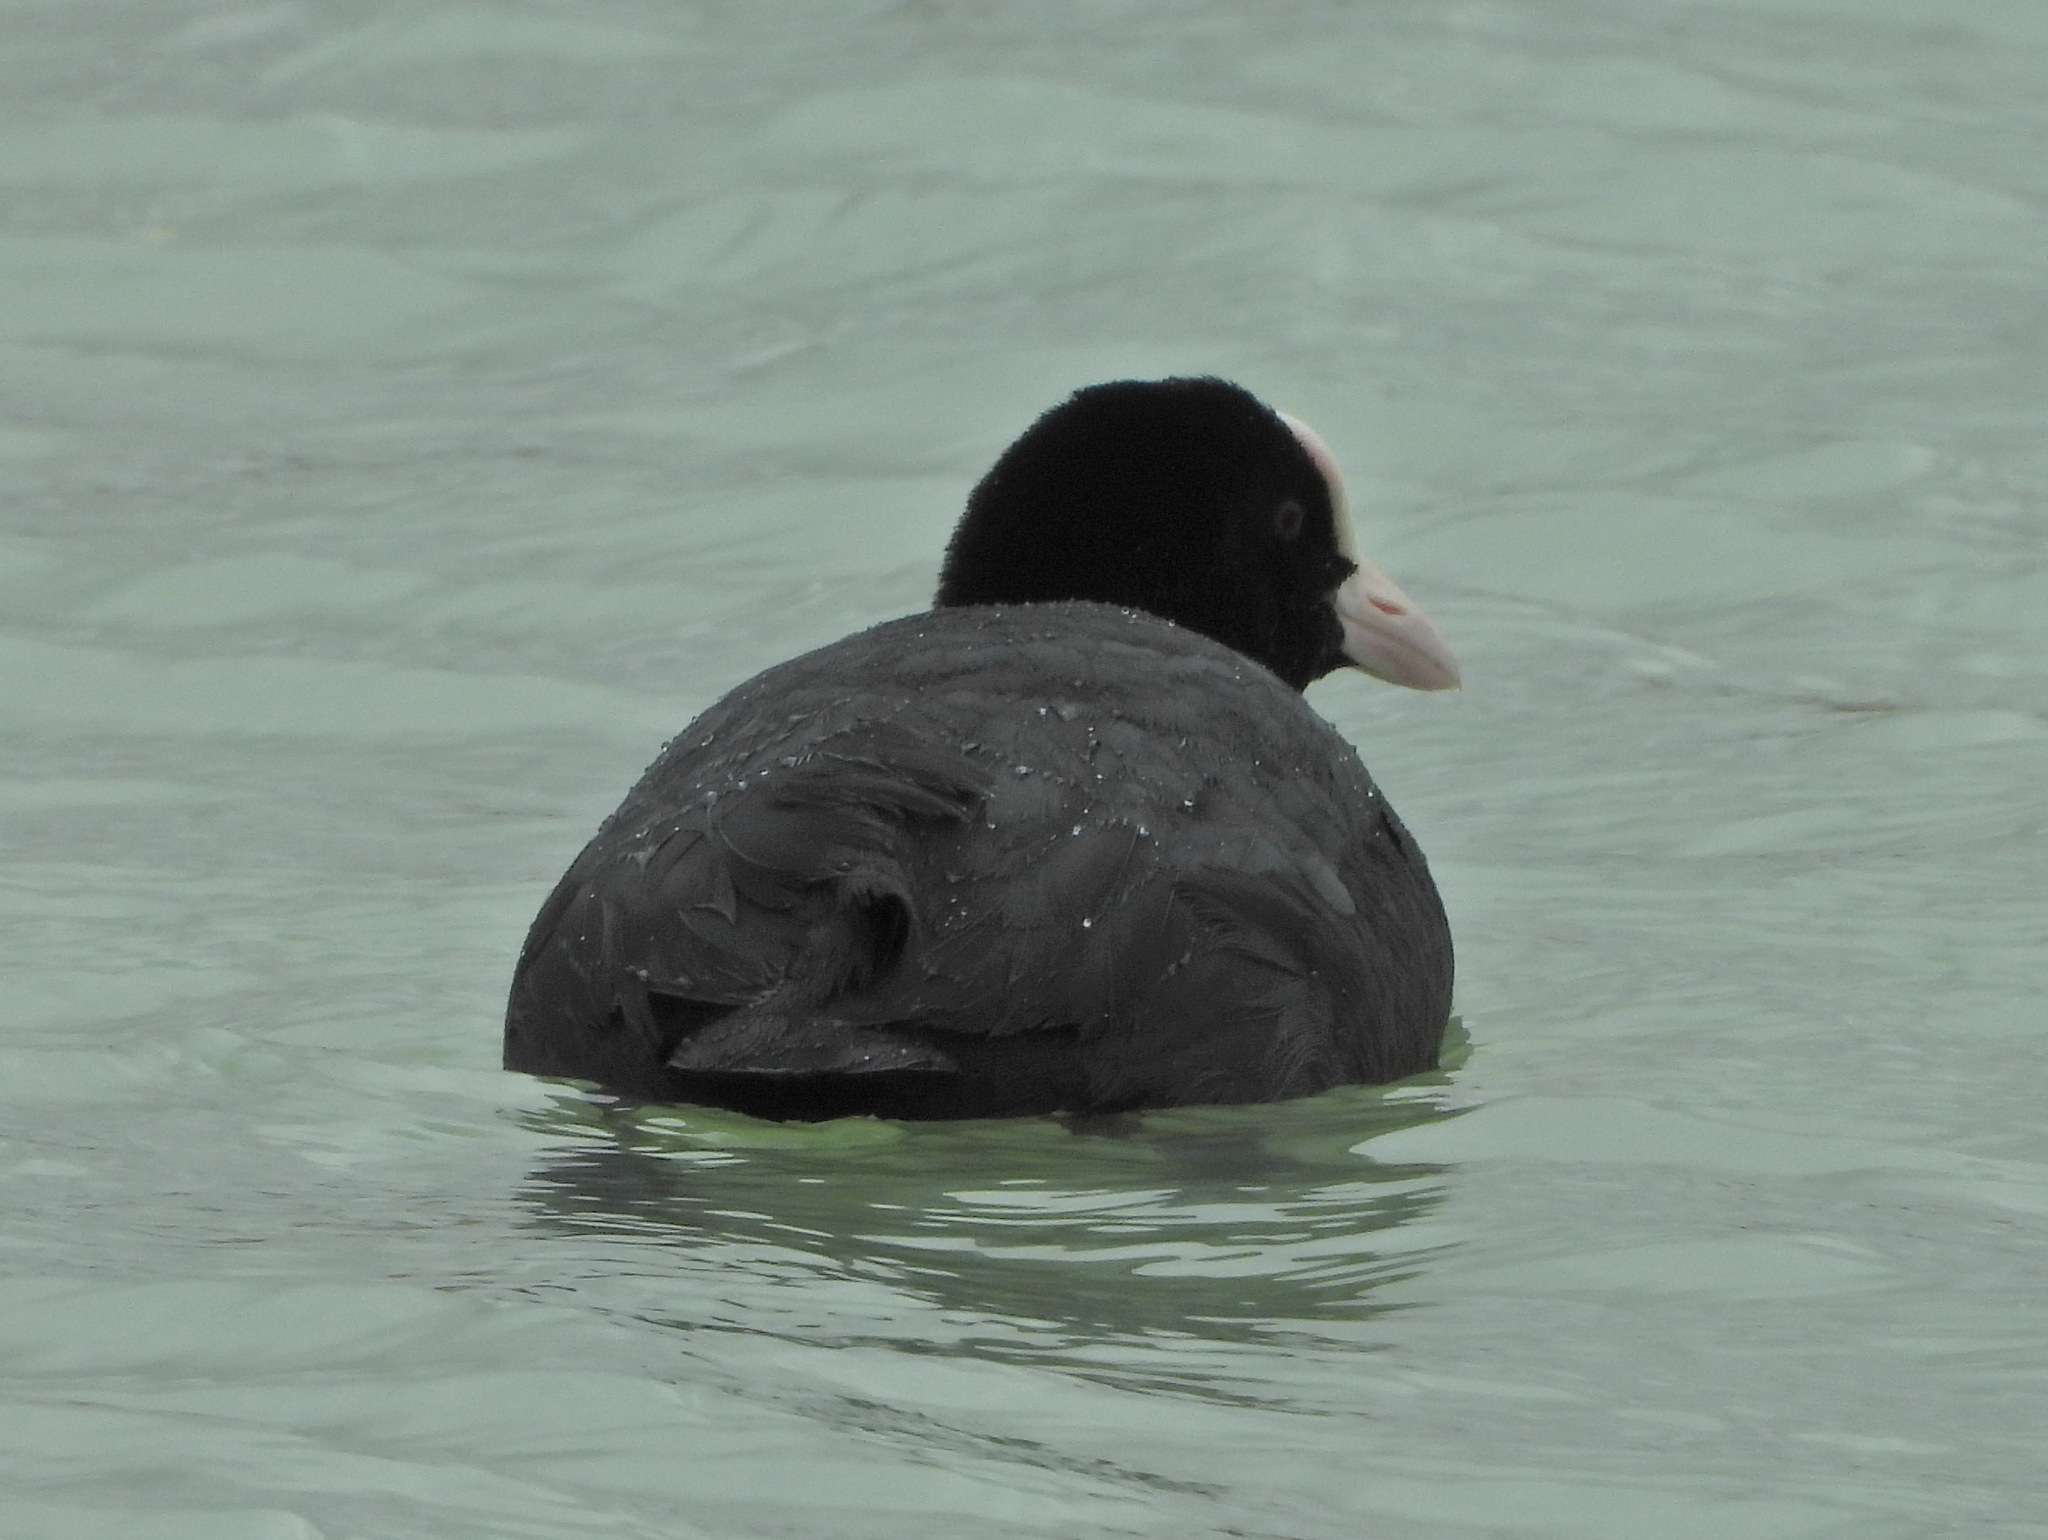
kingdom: Animalia
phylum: Chordata
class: Aves
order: Gruiformes
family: Rallidae
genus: Fulica
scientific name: Fulica atra
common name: Eurasian coot
